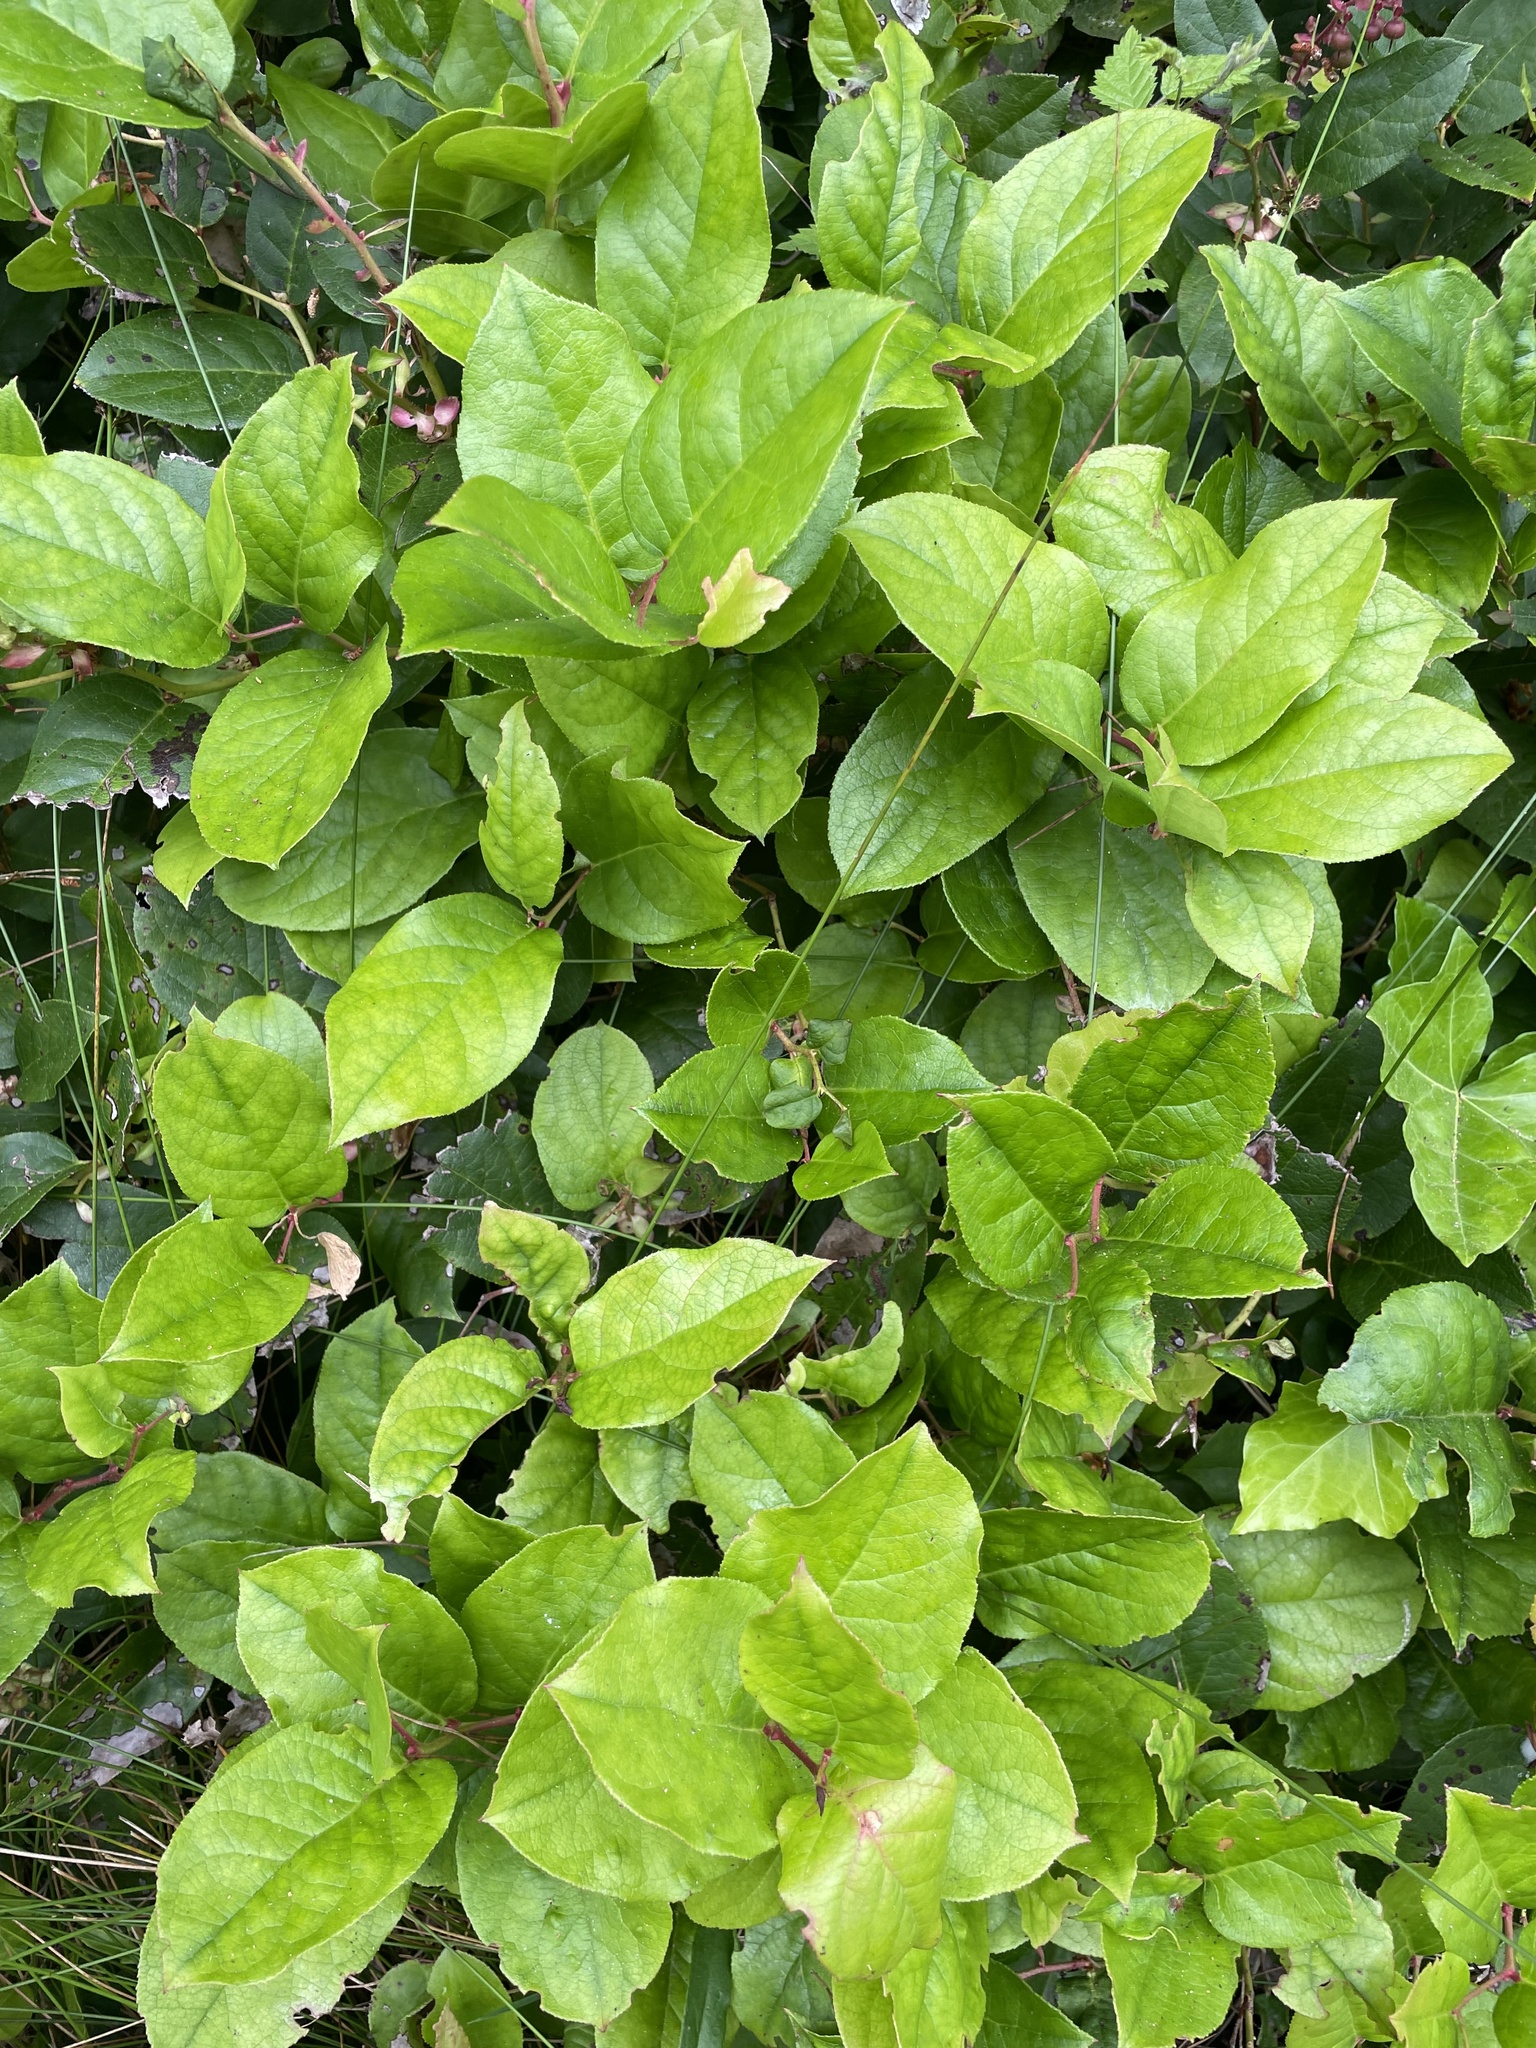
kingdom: Plantae
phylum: Tracheophyta
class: Magnoliopsida
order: Ericales
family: Ericaceae
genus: Gaultheria
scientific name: Gaultheria shallon
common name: Shallon
